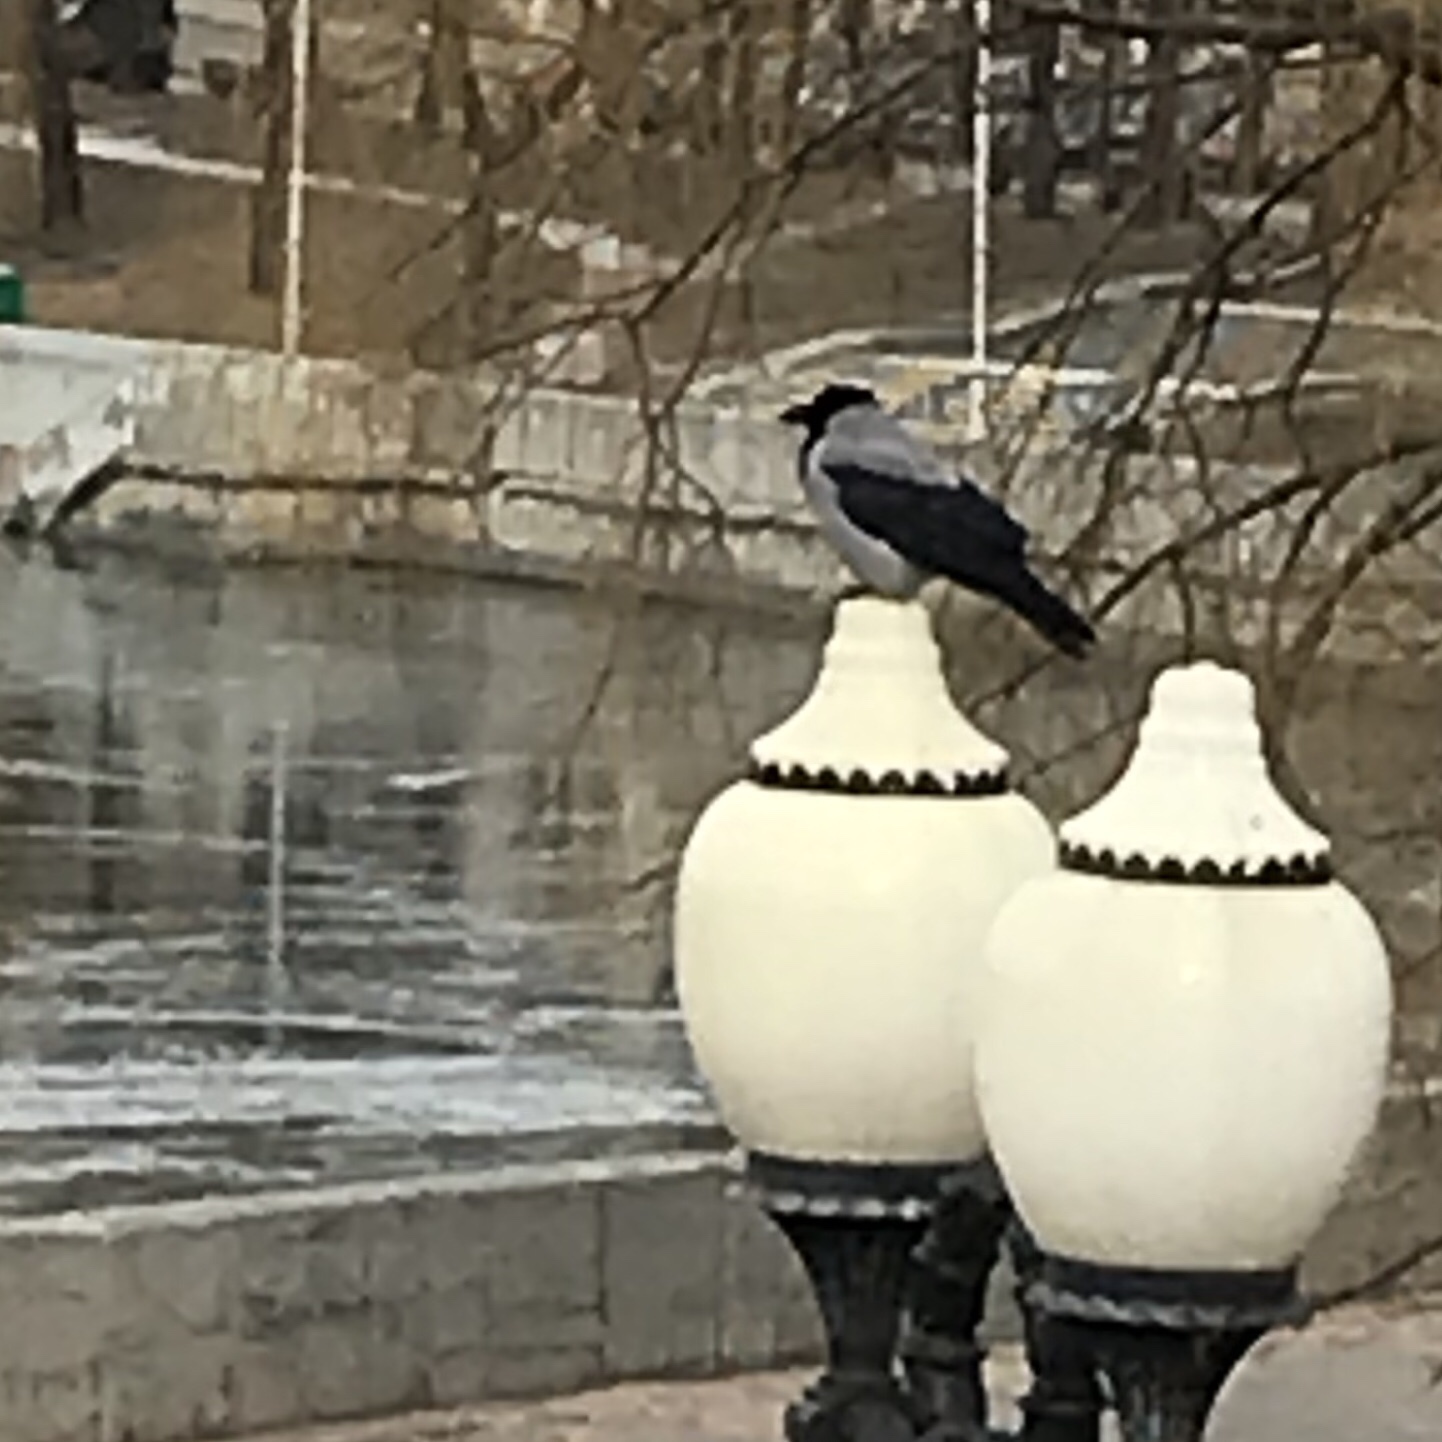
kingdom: Animalia
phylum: Chordata
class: Aves
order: Passeriformes
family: Corvidae
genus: Corvus
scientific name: Corvus cornix
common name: Hooded crow
